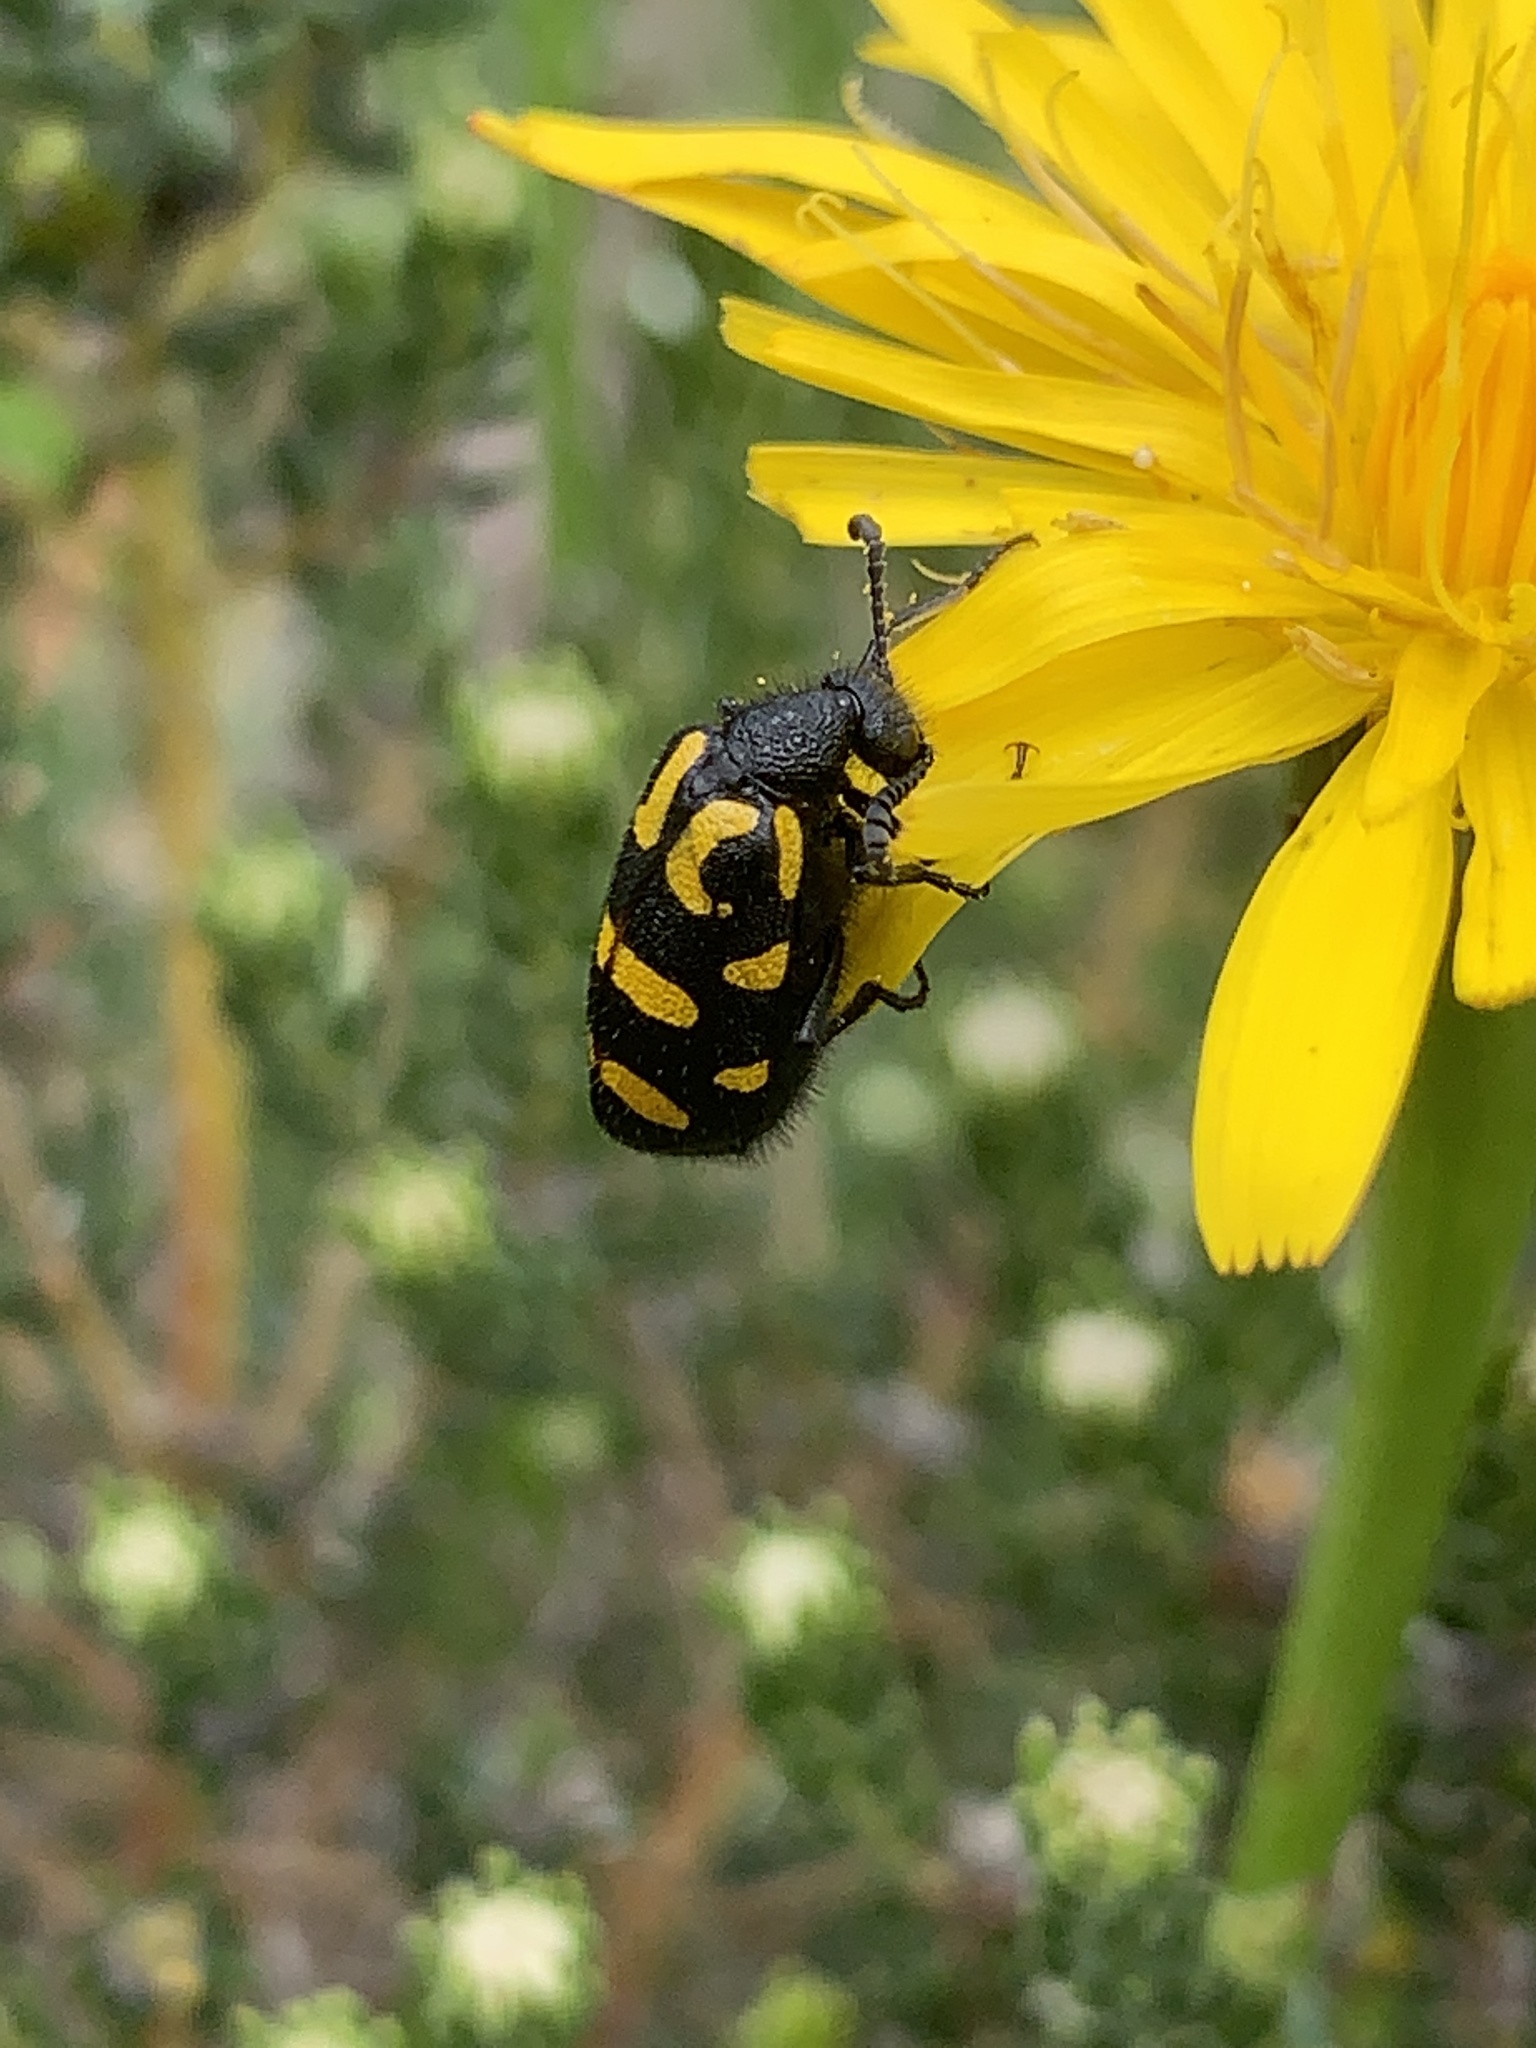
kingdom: Animalia
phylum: Arthropoda
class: Insecta
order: Coleoptera
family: Meloidae
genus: Ceroctis
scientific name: Ceroctis capensis
